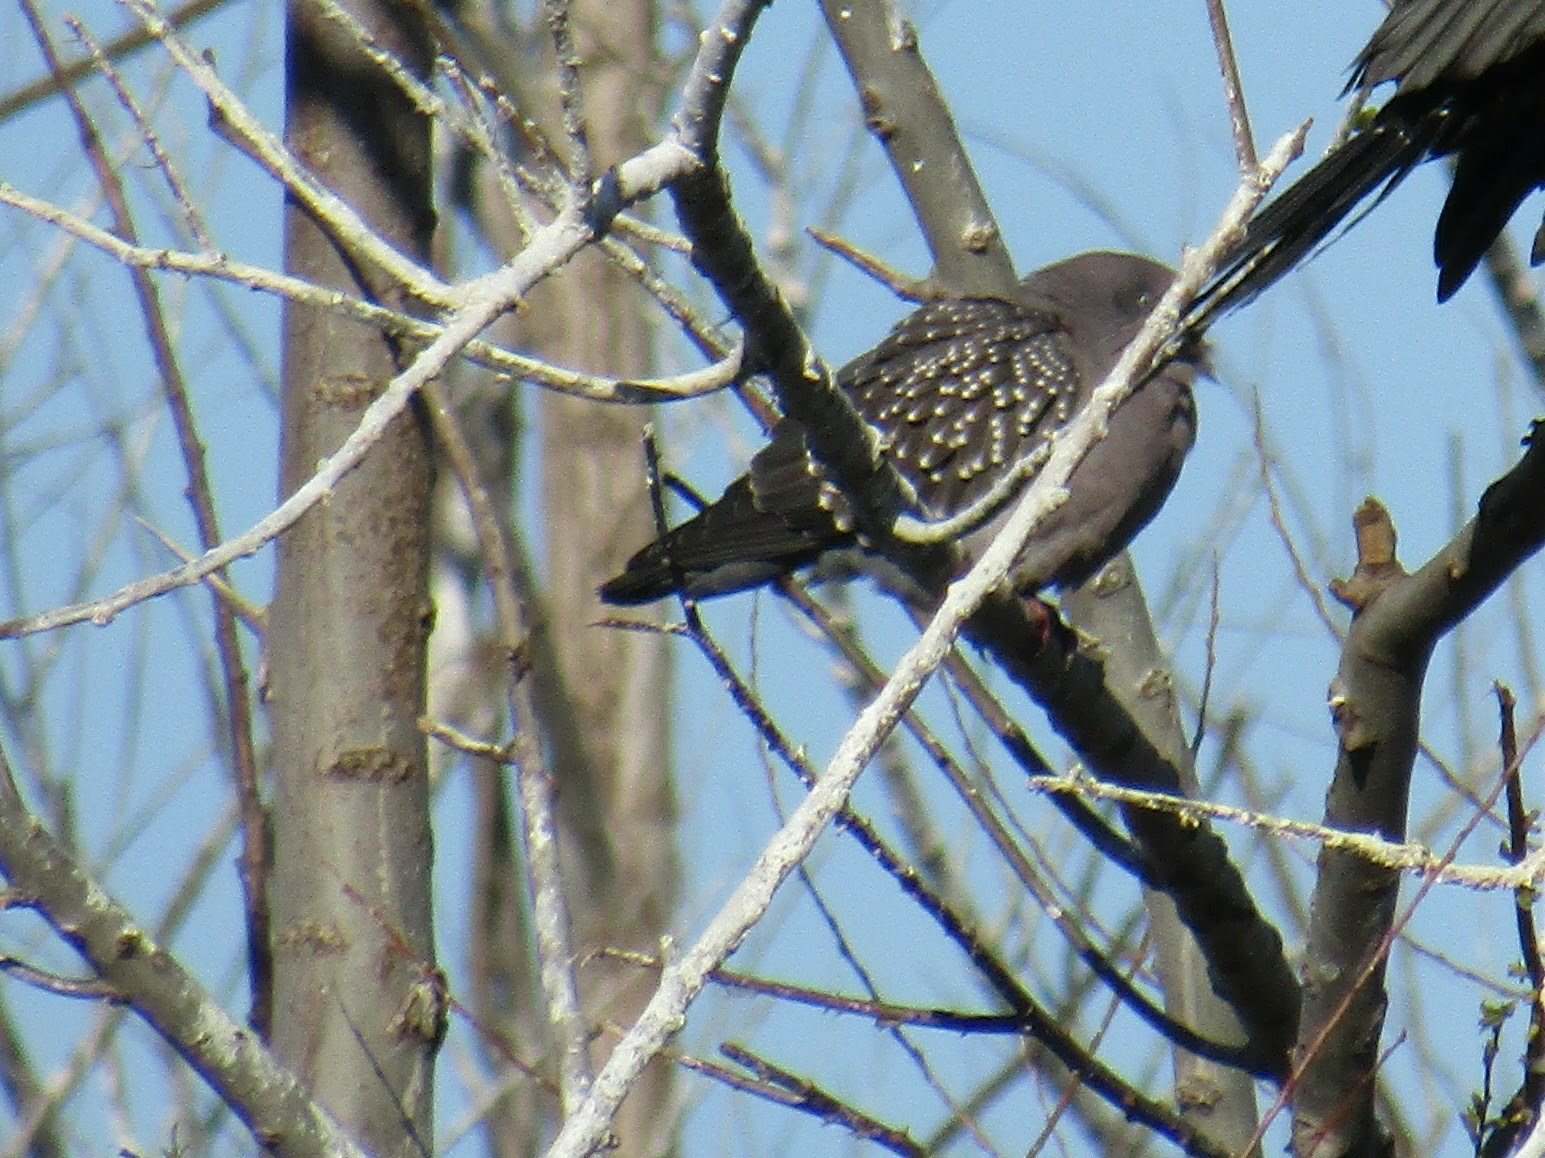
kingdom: Animalia
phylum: Chordata
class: Aves
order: Columbiformes
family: Columbidae
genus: Patagioenas
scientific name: Patagioenas maculosa
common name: Spot-winged pigeon
